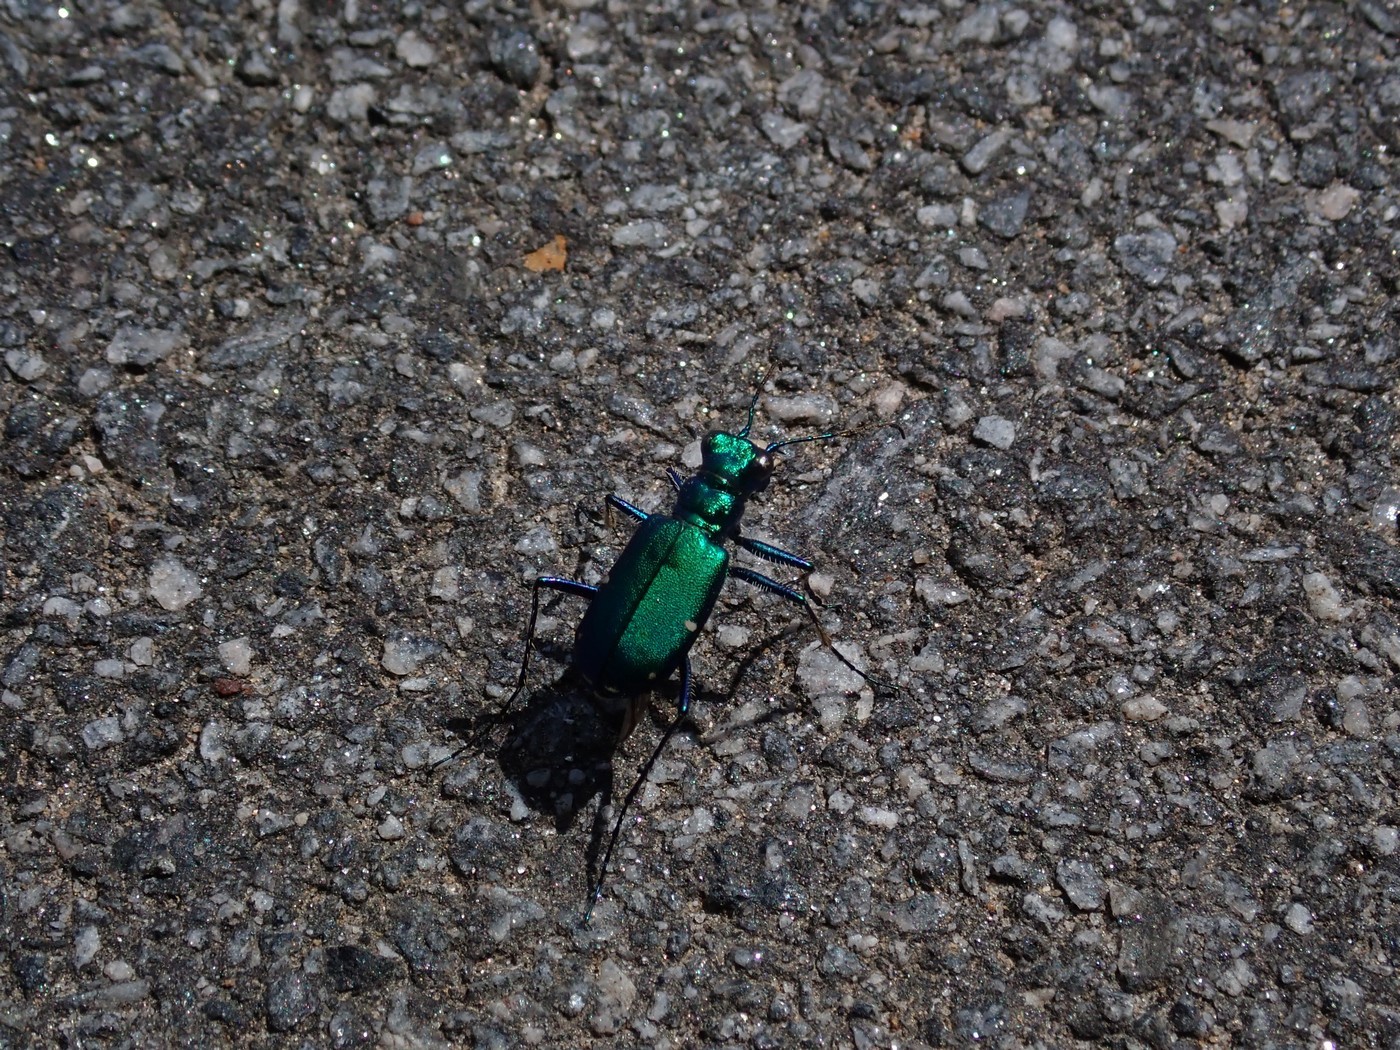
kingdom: Animalia
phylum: Arthropoda
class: Insecta
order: Coleoptera
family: Carabidae
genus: Cicindela
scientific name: Cicindela sexguttata
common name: Six-spotted tiger beetle
